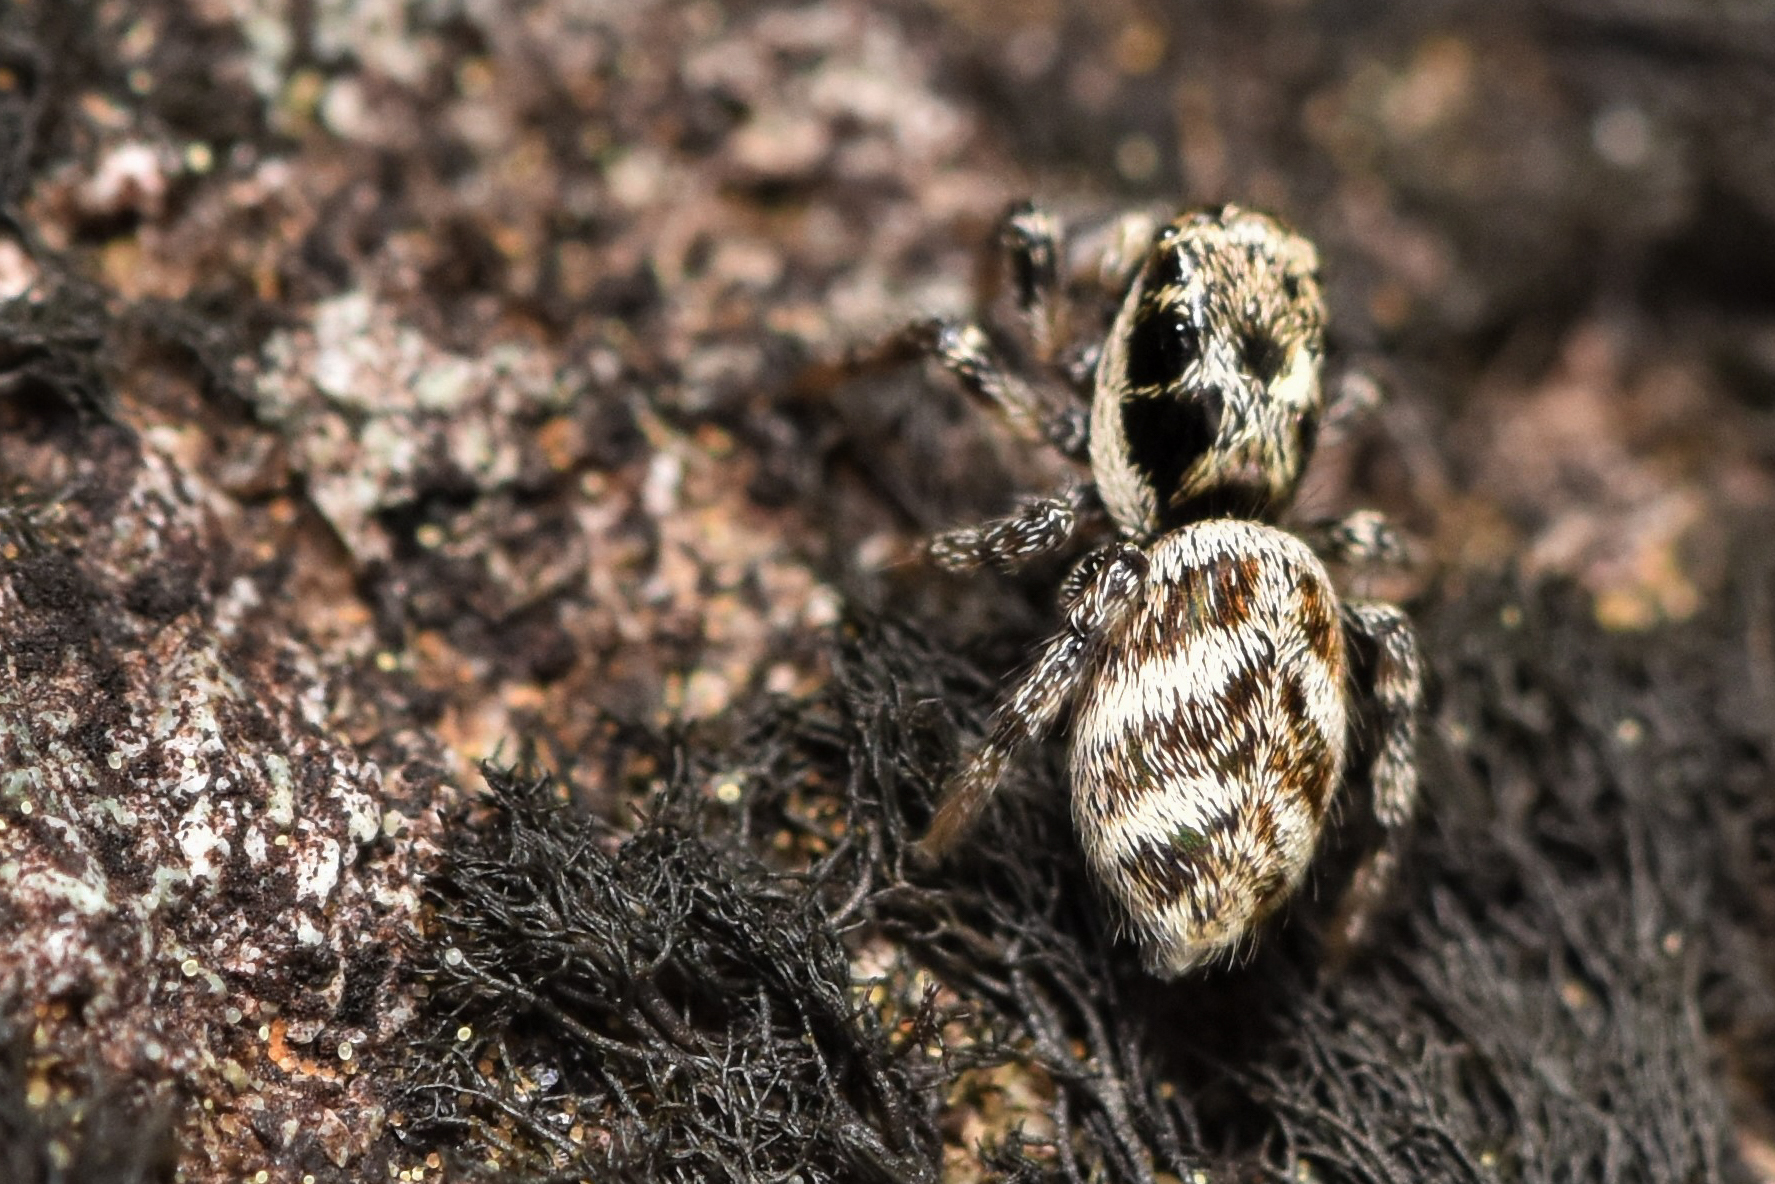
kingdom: Animalia
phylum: Arthropoda
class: Arachnida
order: Araneae
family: Salticidae
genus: Salticus
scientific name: Salticus scenicus
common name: Zebra jumper
